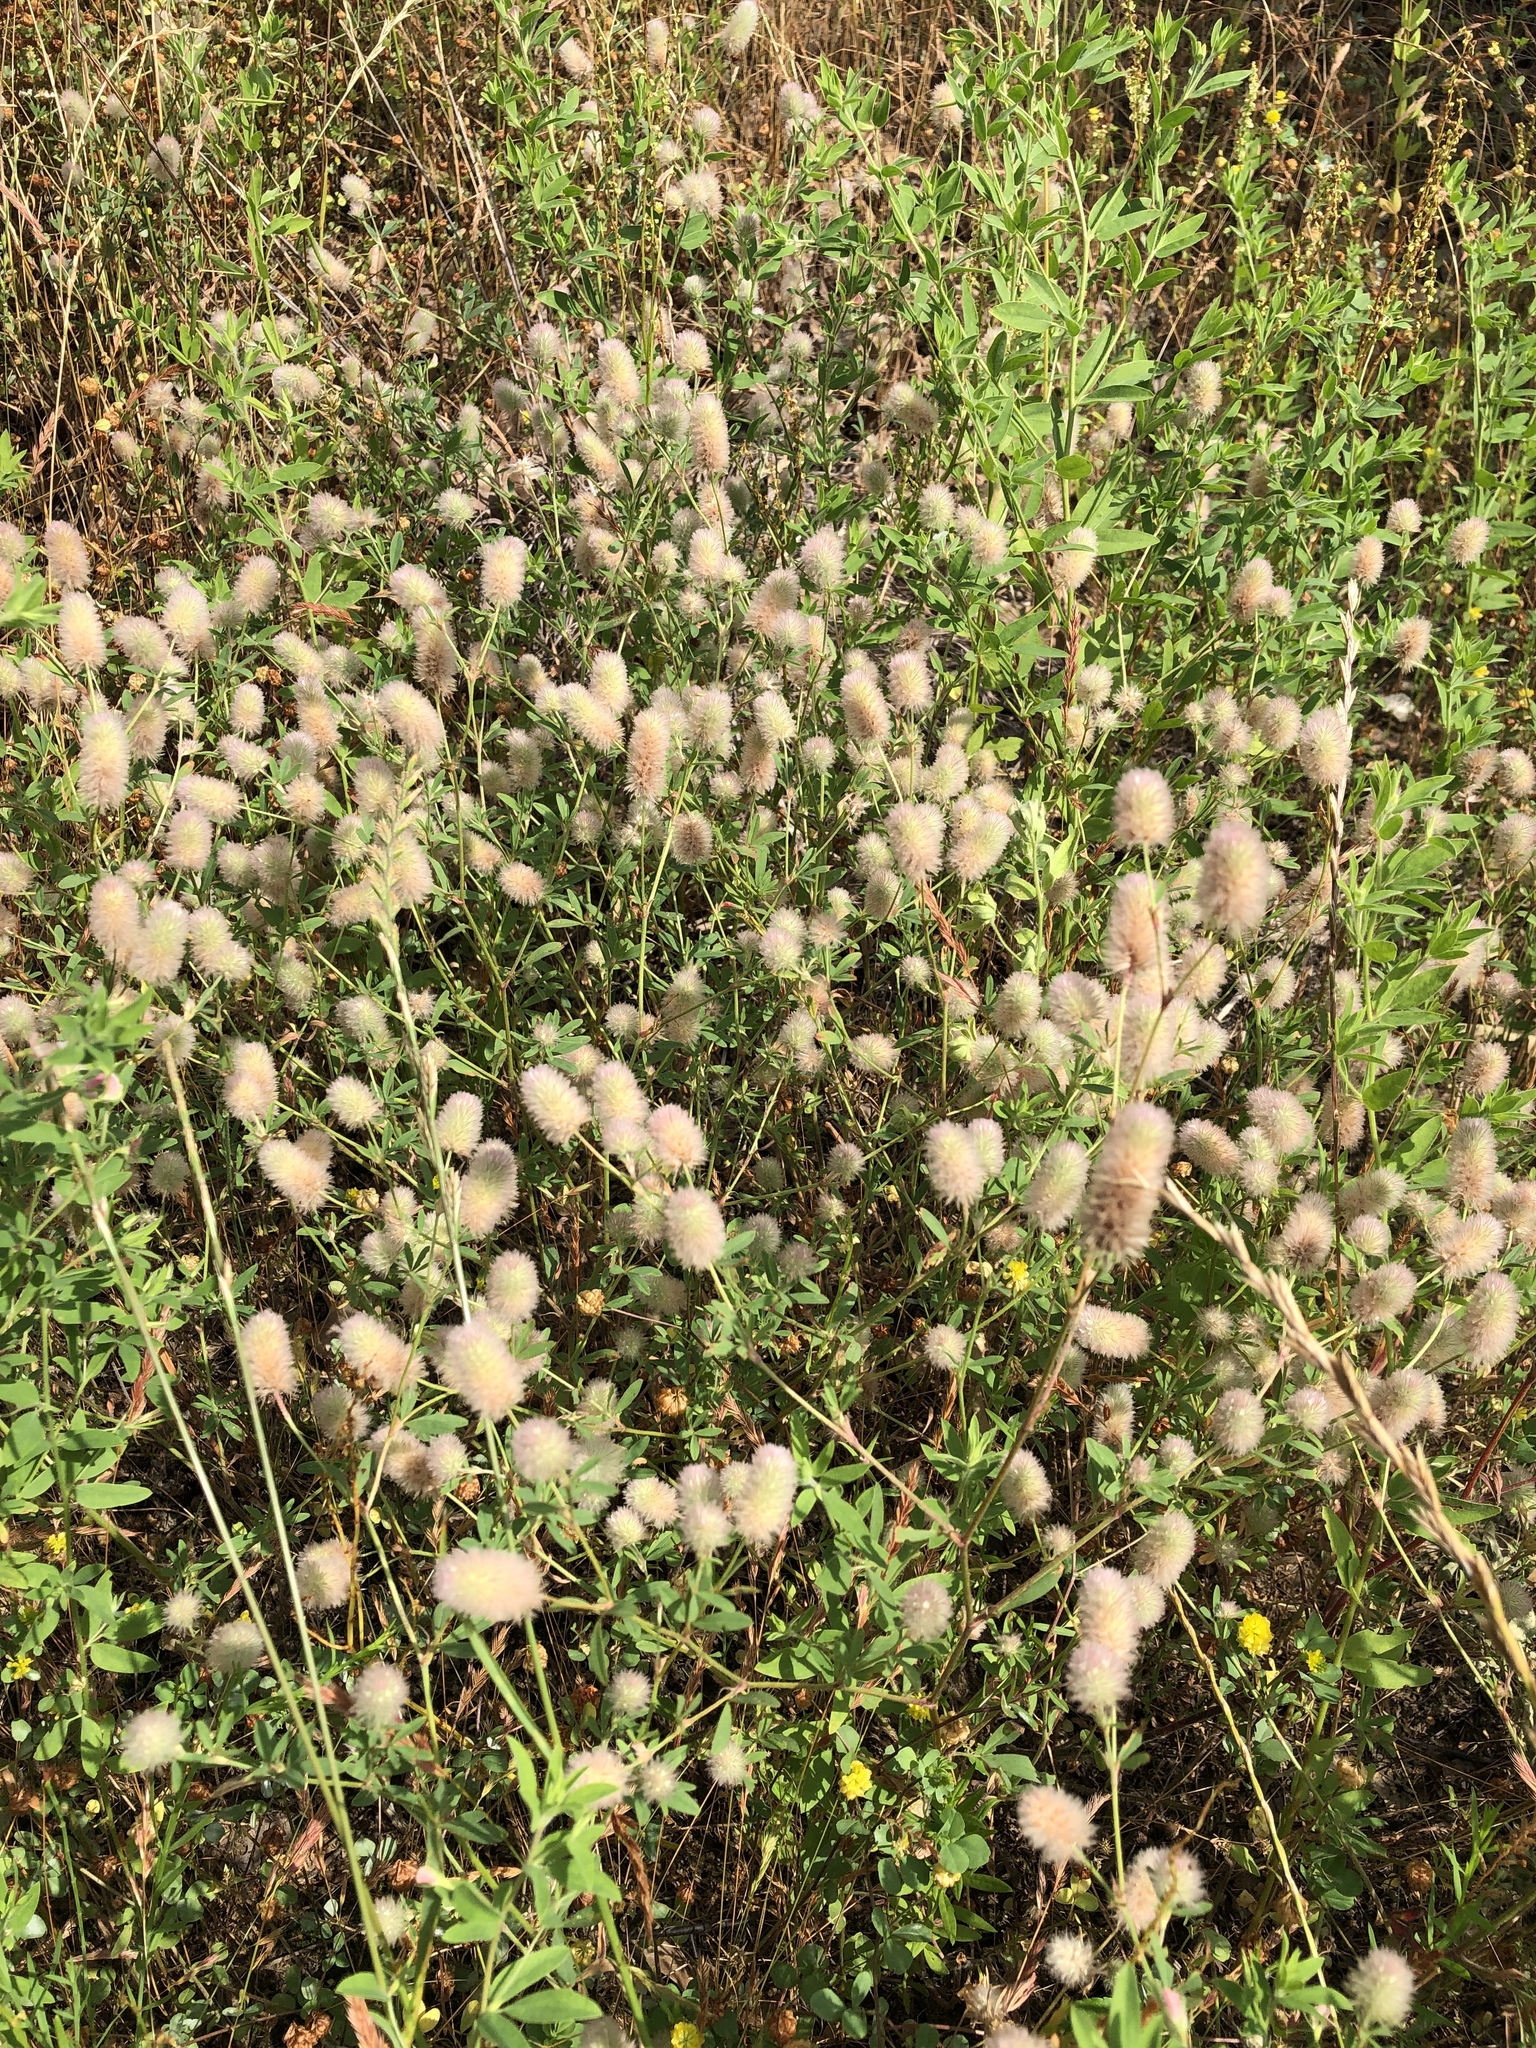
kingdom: Plantae
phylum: Tracheophyta
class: Magnoliopsida
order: Fabales
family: Fabaceae
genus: Trifolium
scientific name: Trifolium arvense
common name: Hare's-foot clover
